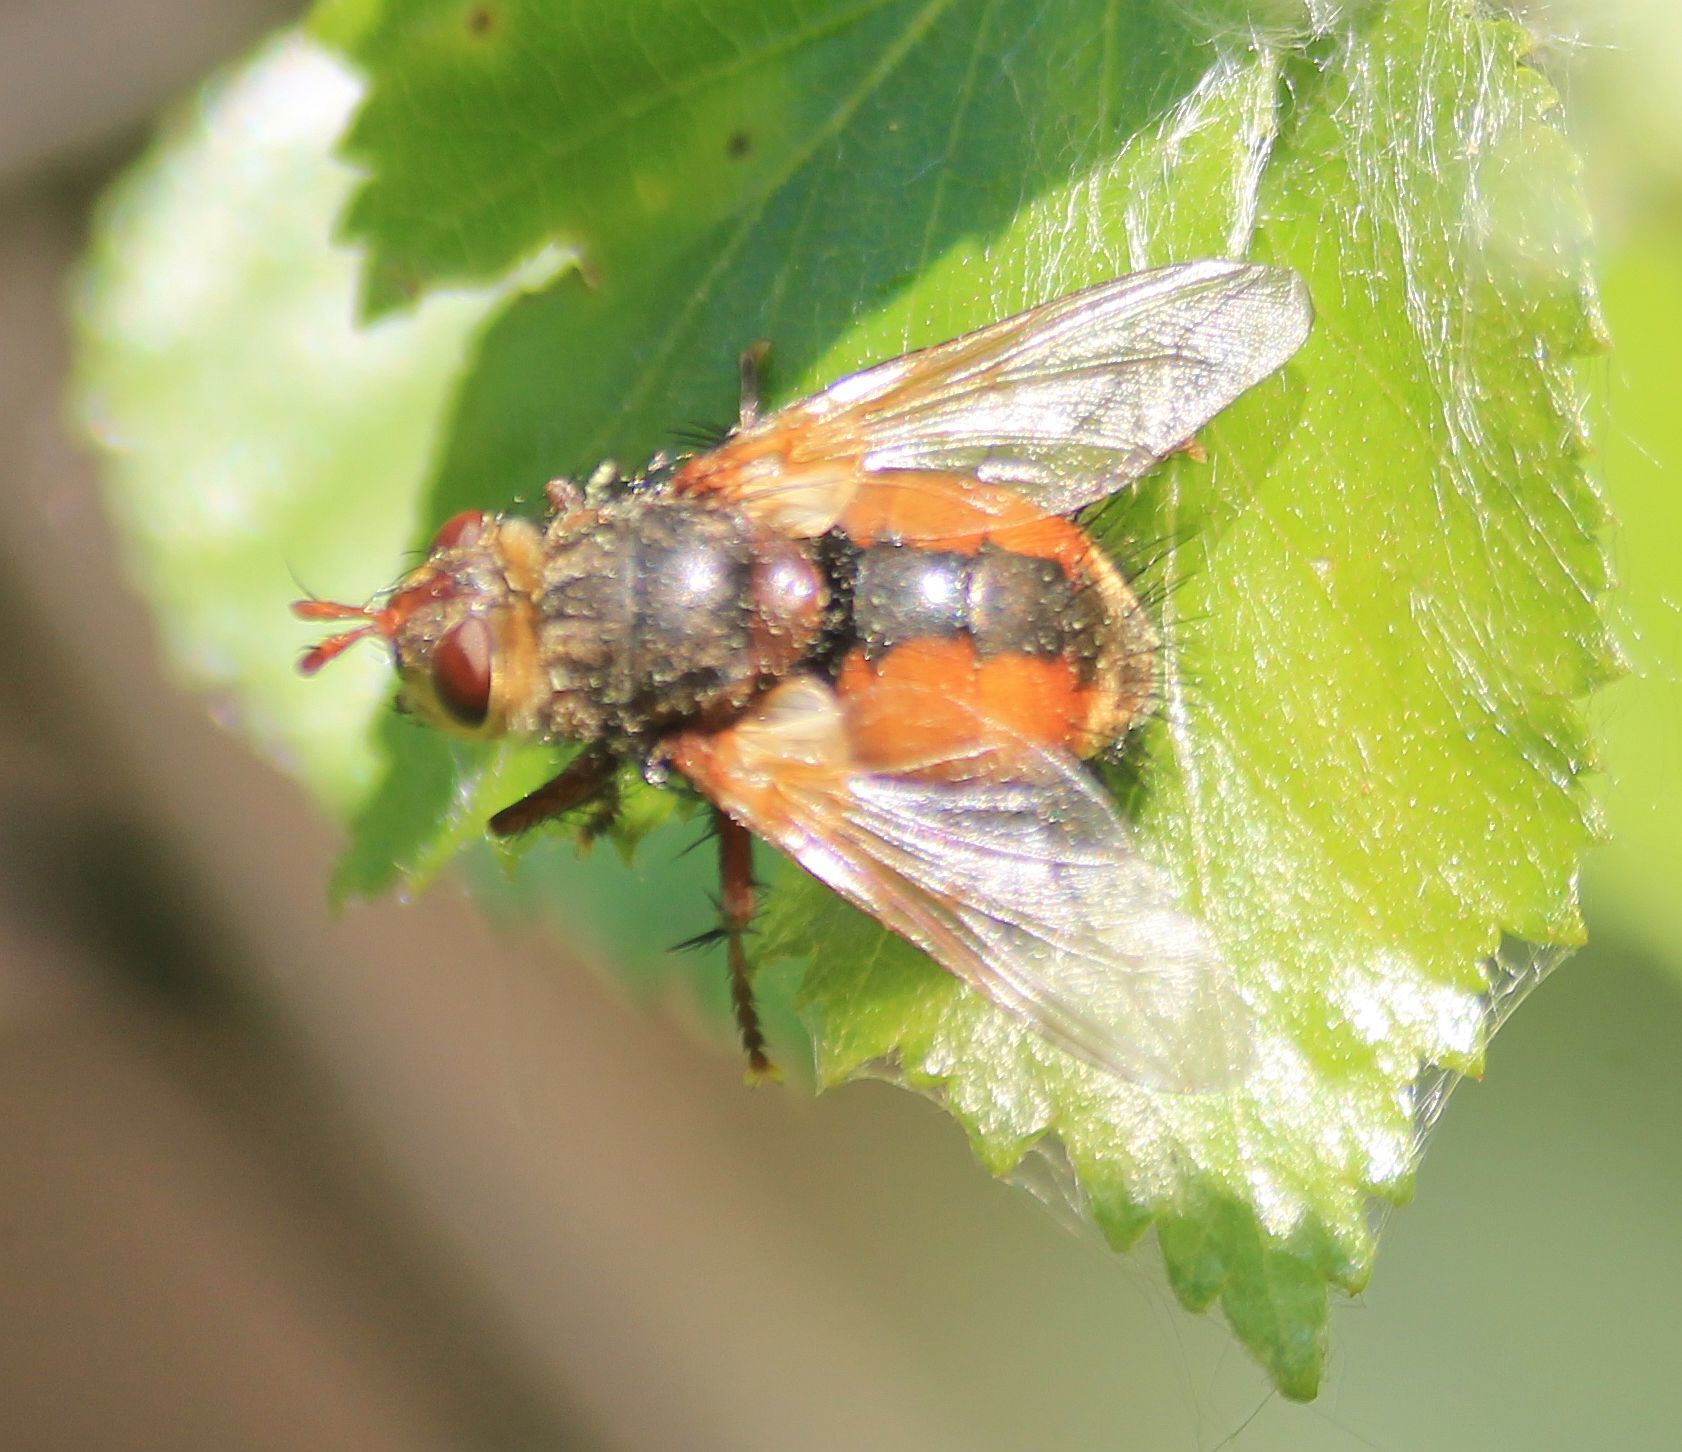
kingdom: Animalia
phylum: Arthropoda
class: Insecta
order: Diptera
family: Tachinidae
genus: Tachina
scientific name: Tachina fera
